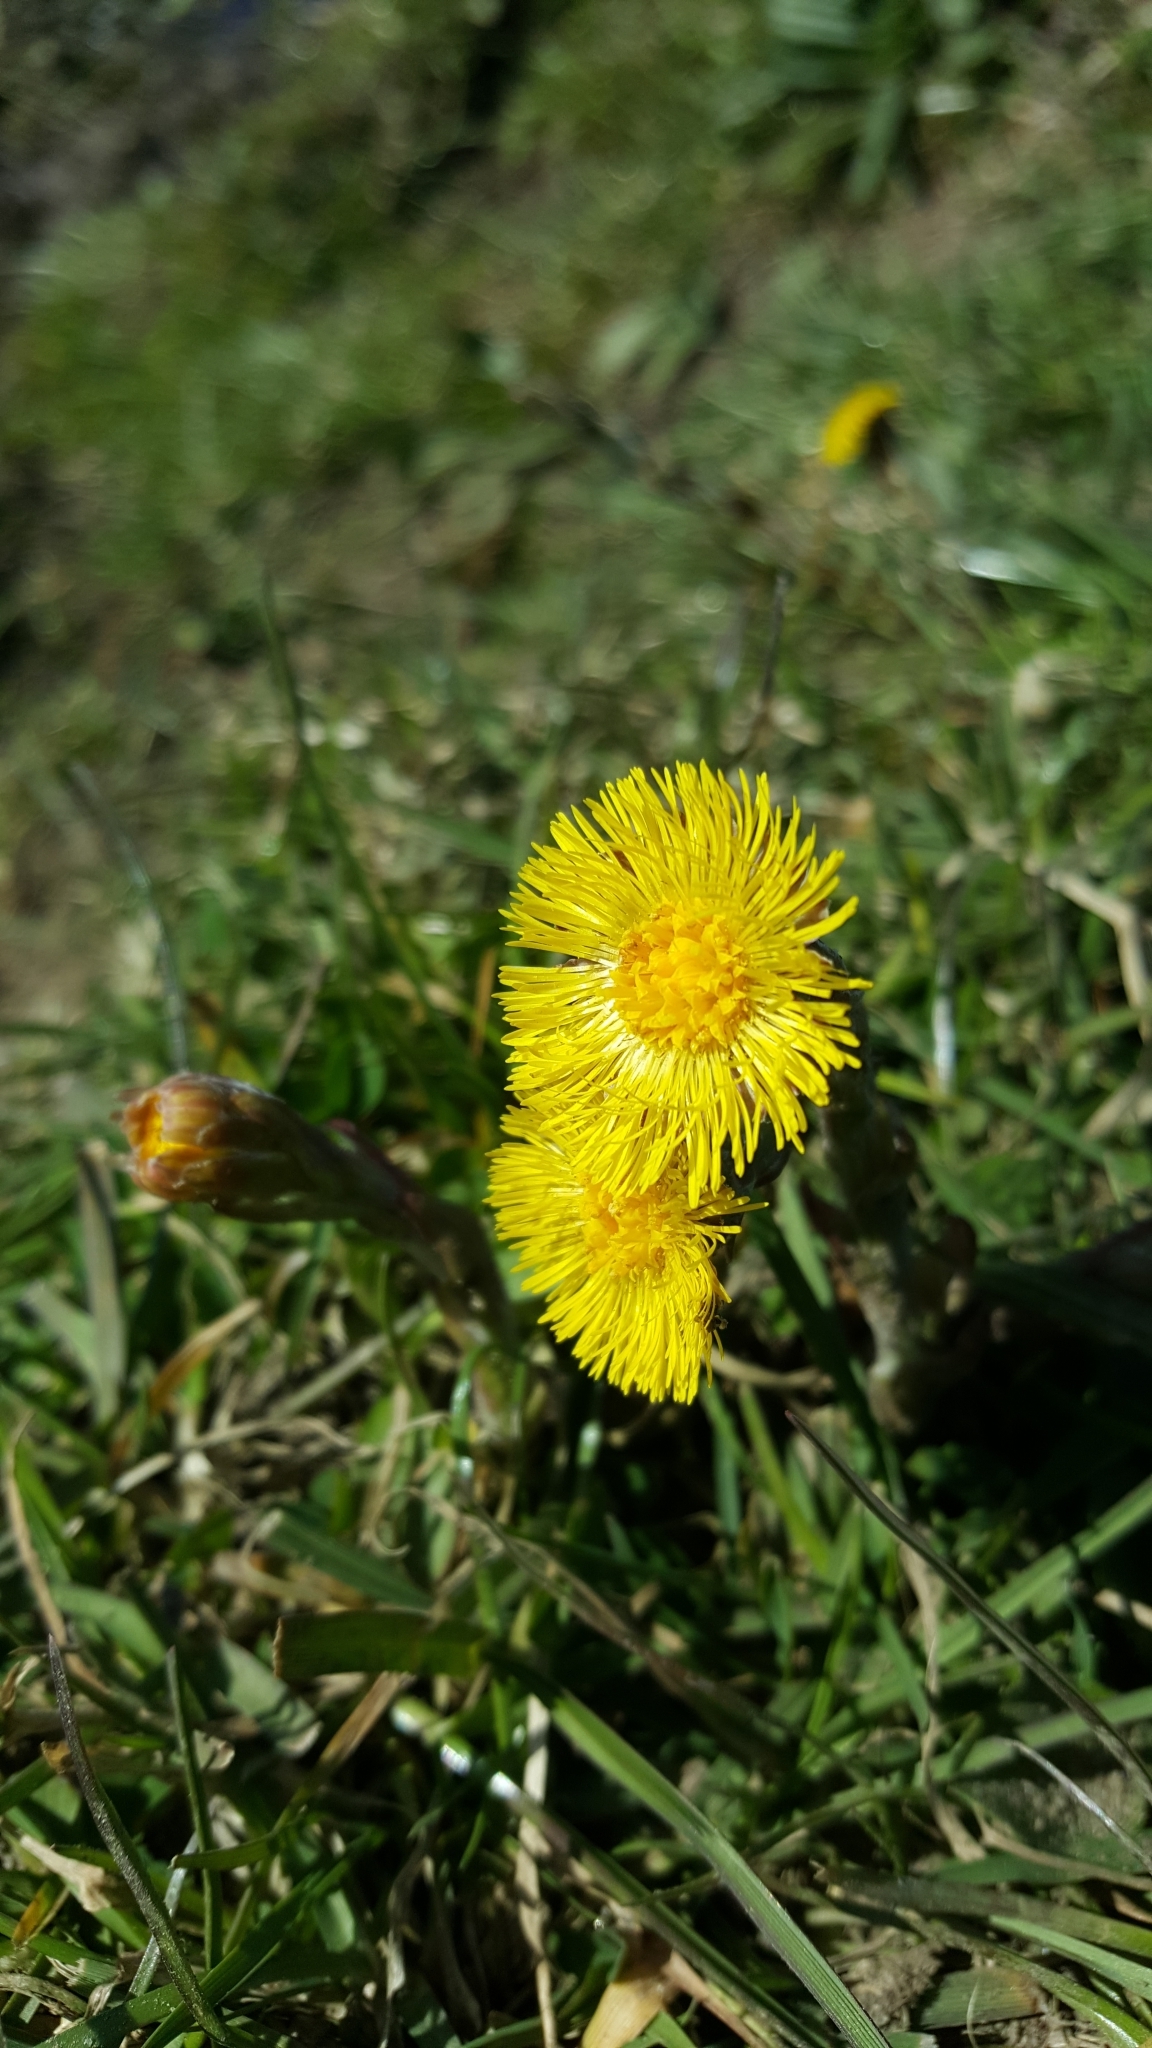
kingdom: Plantae
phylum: Tracheophyta
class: Magnoliopsida
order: Asterales
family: Asteraceae
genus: Tussilago
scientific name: Tussilago farfara
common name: Coltsfoot
